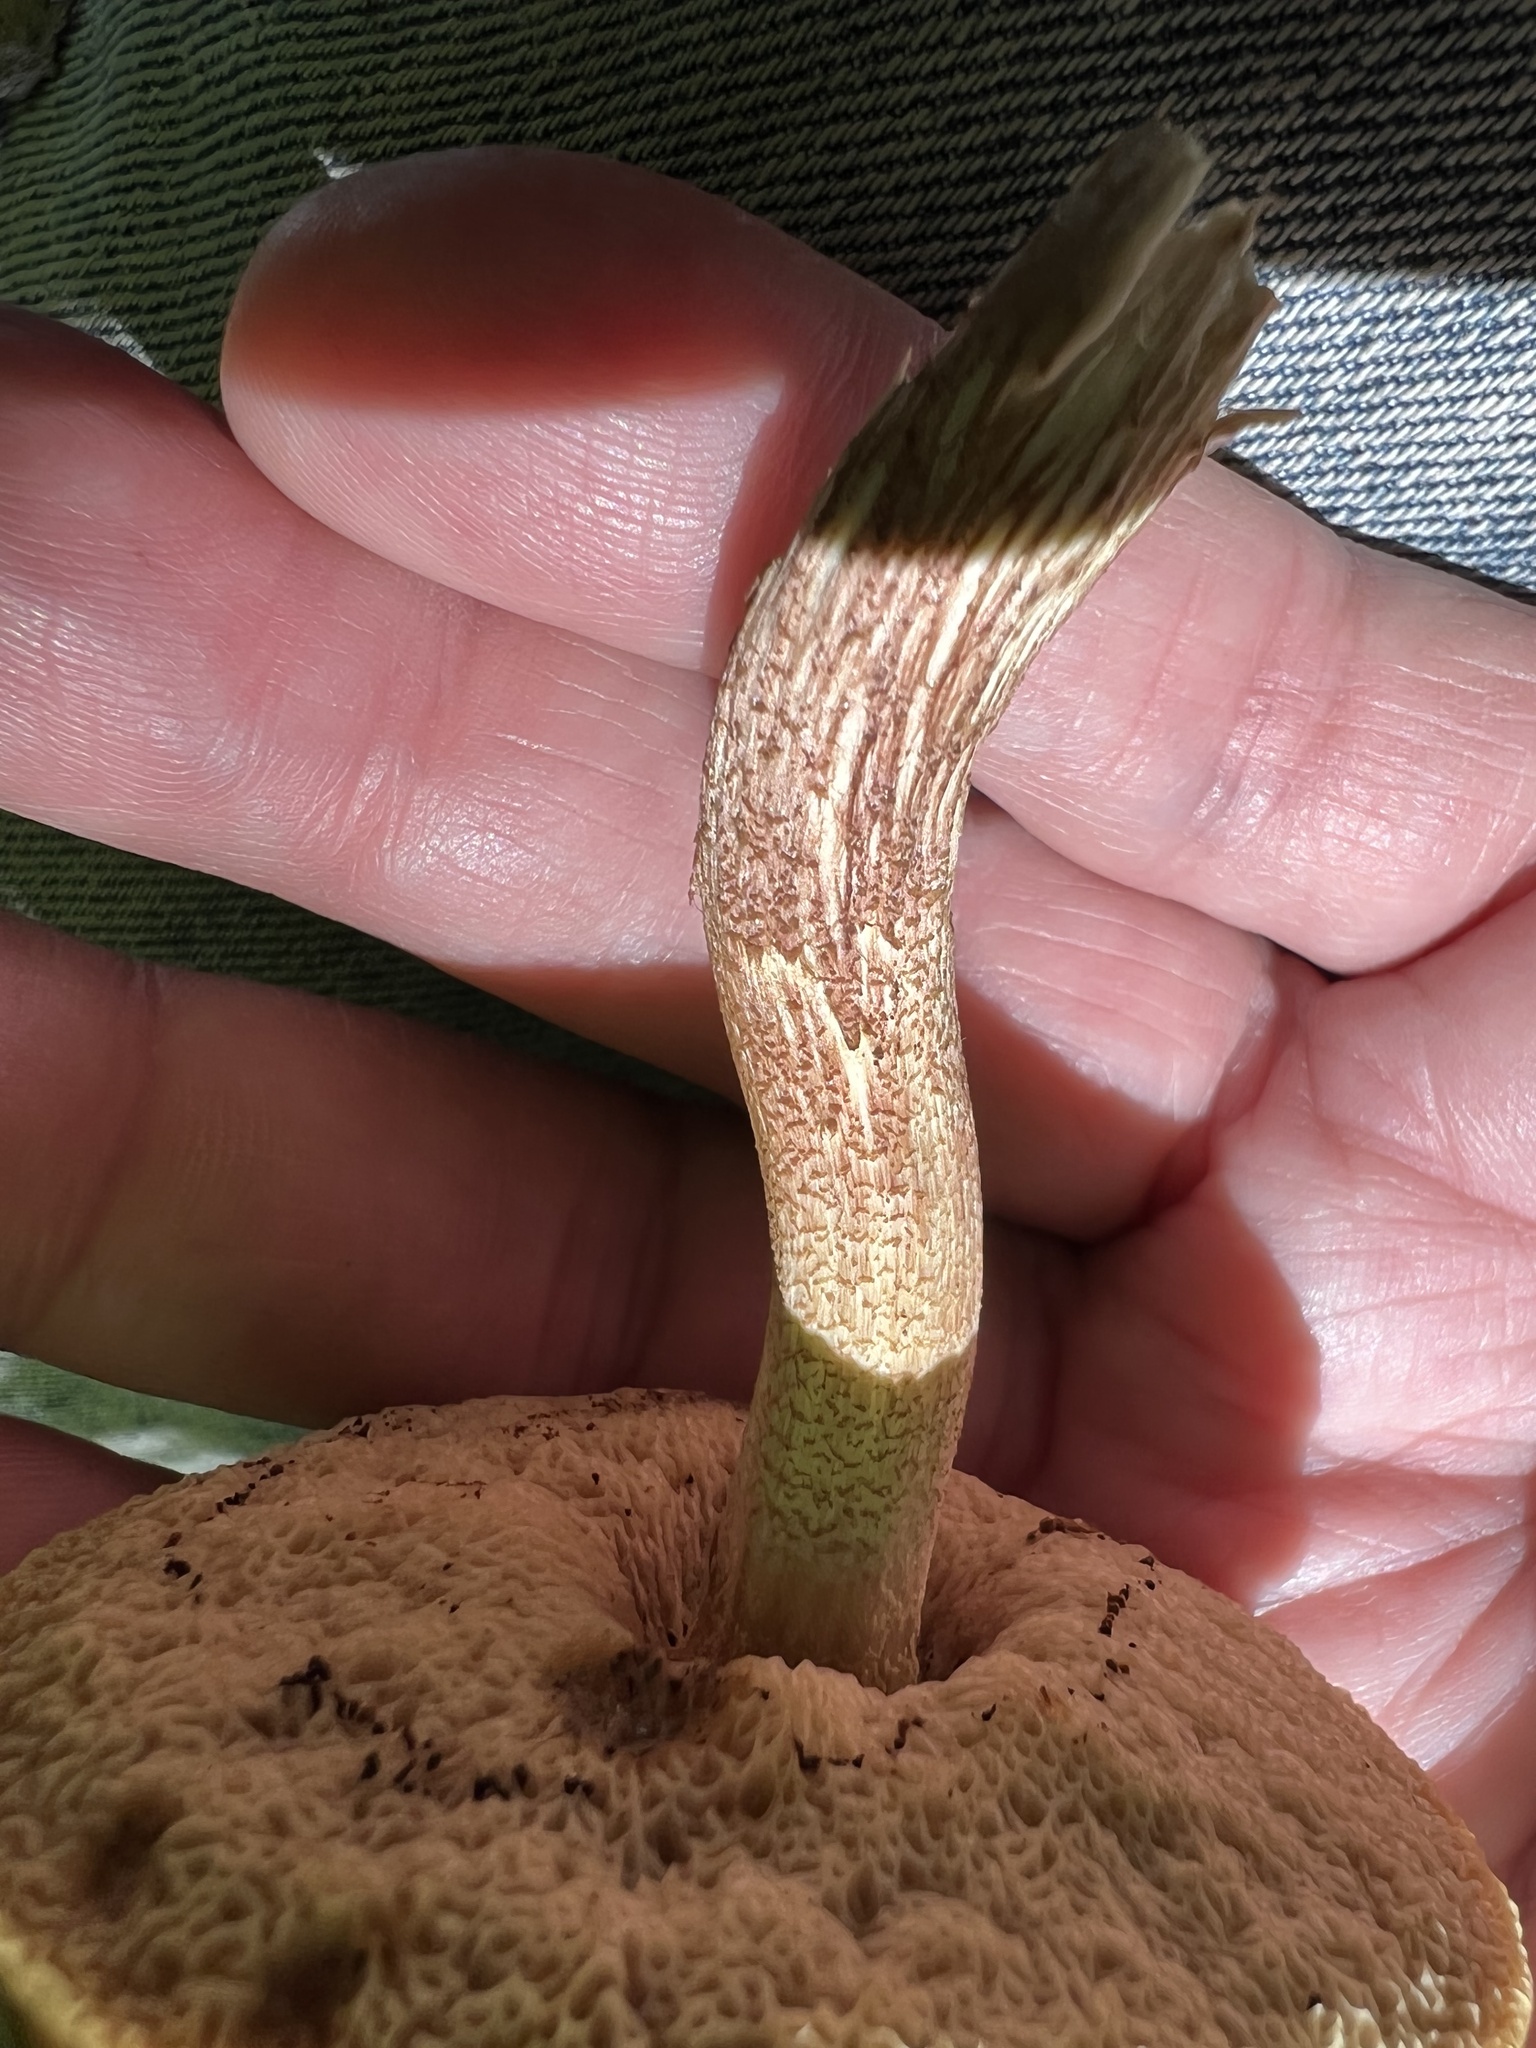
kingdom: Fungi
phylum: Basidiomycota
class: Agaricomycetes
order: Boletales
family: Boletaceae
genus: Leccinum
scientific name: Leccinum longicurvipes
